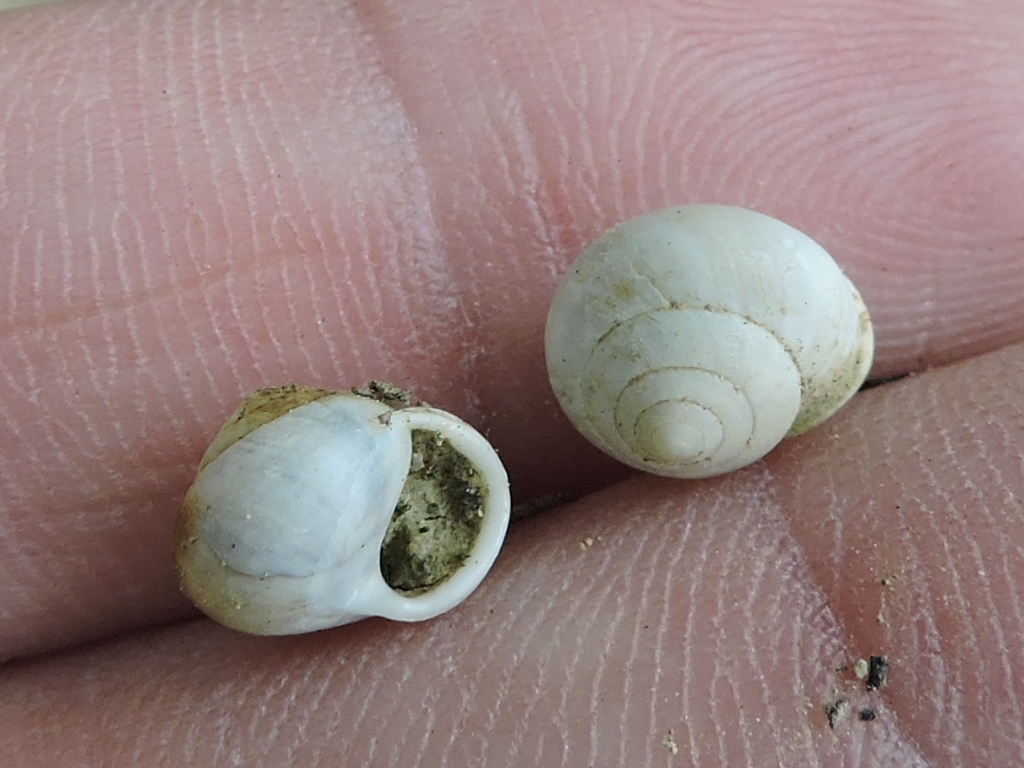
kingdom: Animalia
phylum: Mollusca
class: Gastropoda
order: Cycloneritida
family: Helicinidae
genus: Helicina
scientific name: Helicina orbiculata
